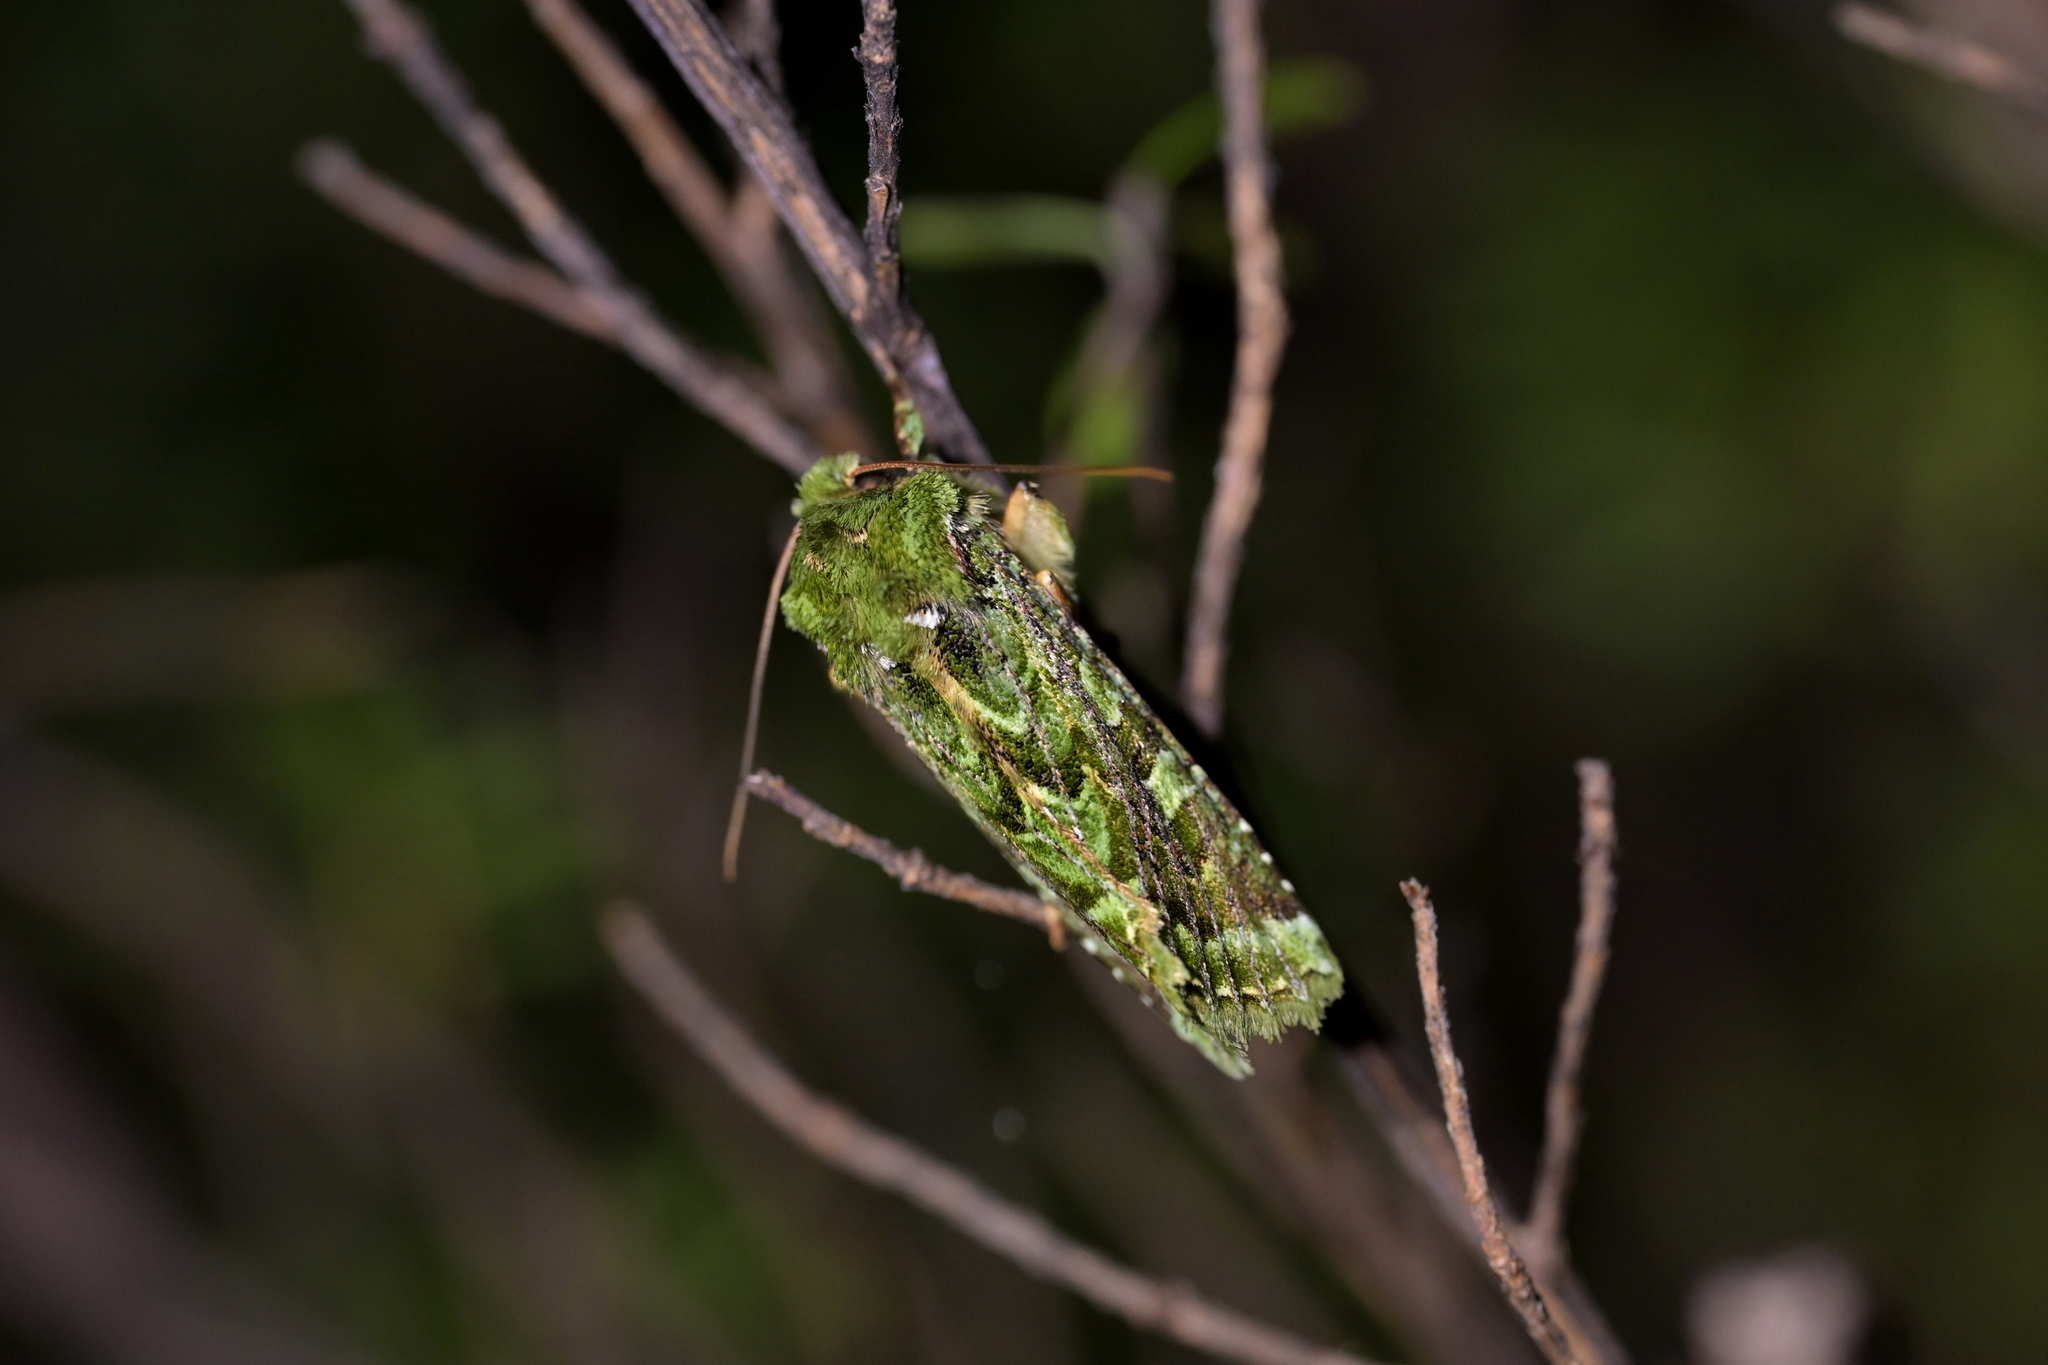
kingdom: Animalia
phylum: Arthropoda
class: Insecta
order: Lepidoptera
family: Noctuidae
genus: Feredayia
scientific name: Feredayia grammosa
